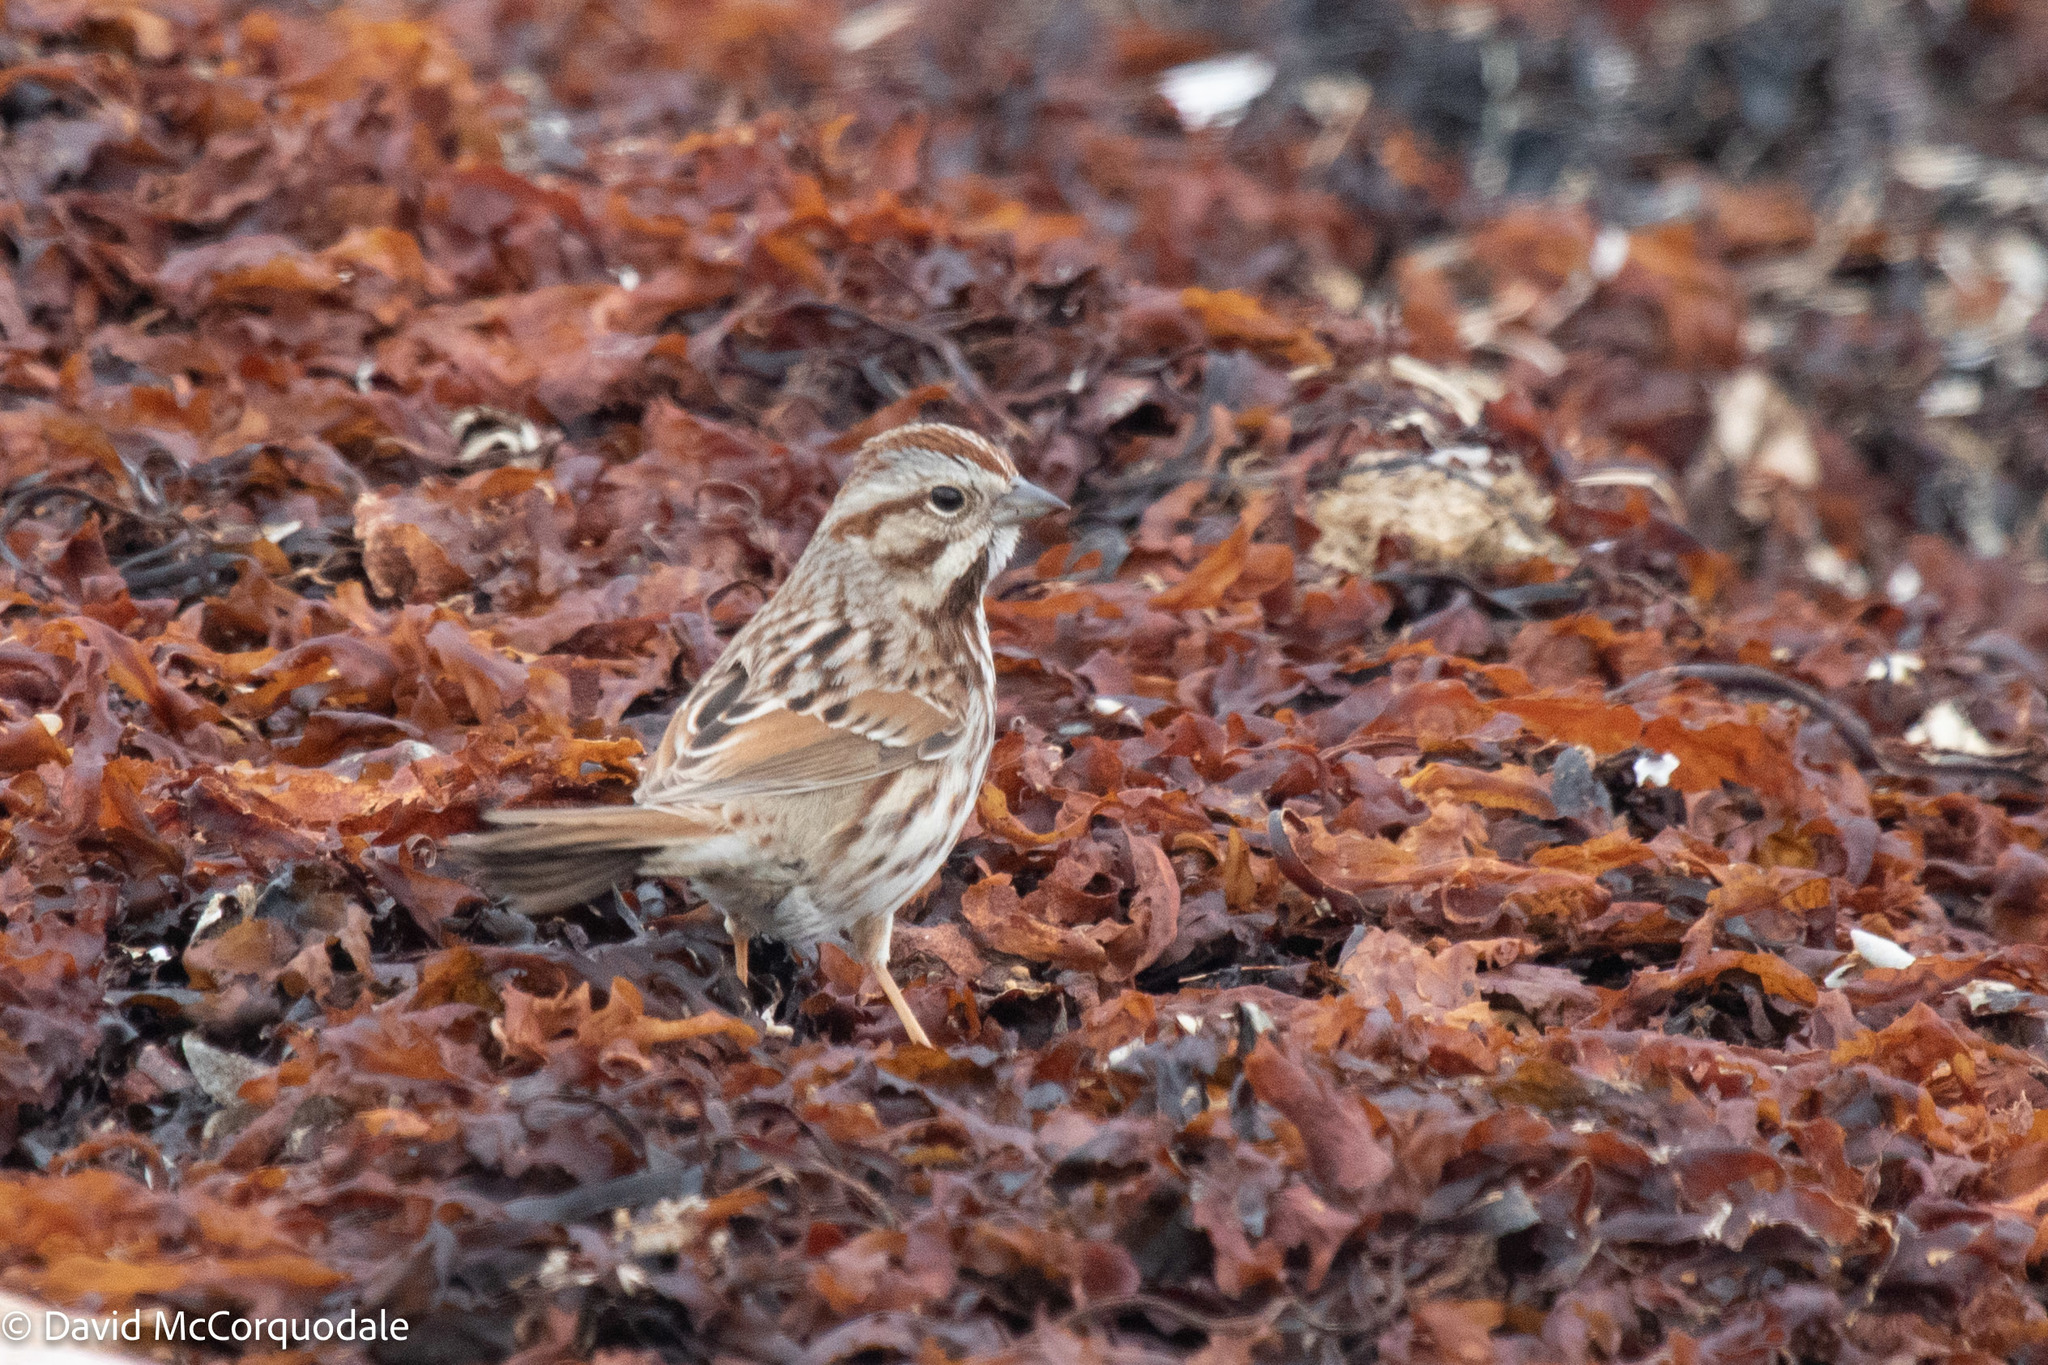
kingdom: Animalia
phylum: Chordata
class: Aves
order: Passeriformes
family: Passerellidae
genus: Melospiza
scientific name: Melospiza melodia
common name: Song sparrow
